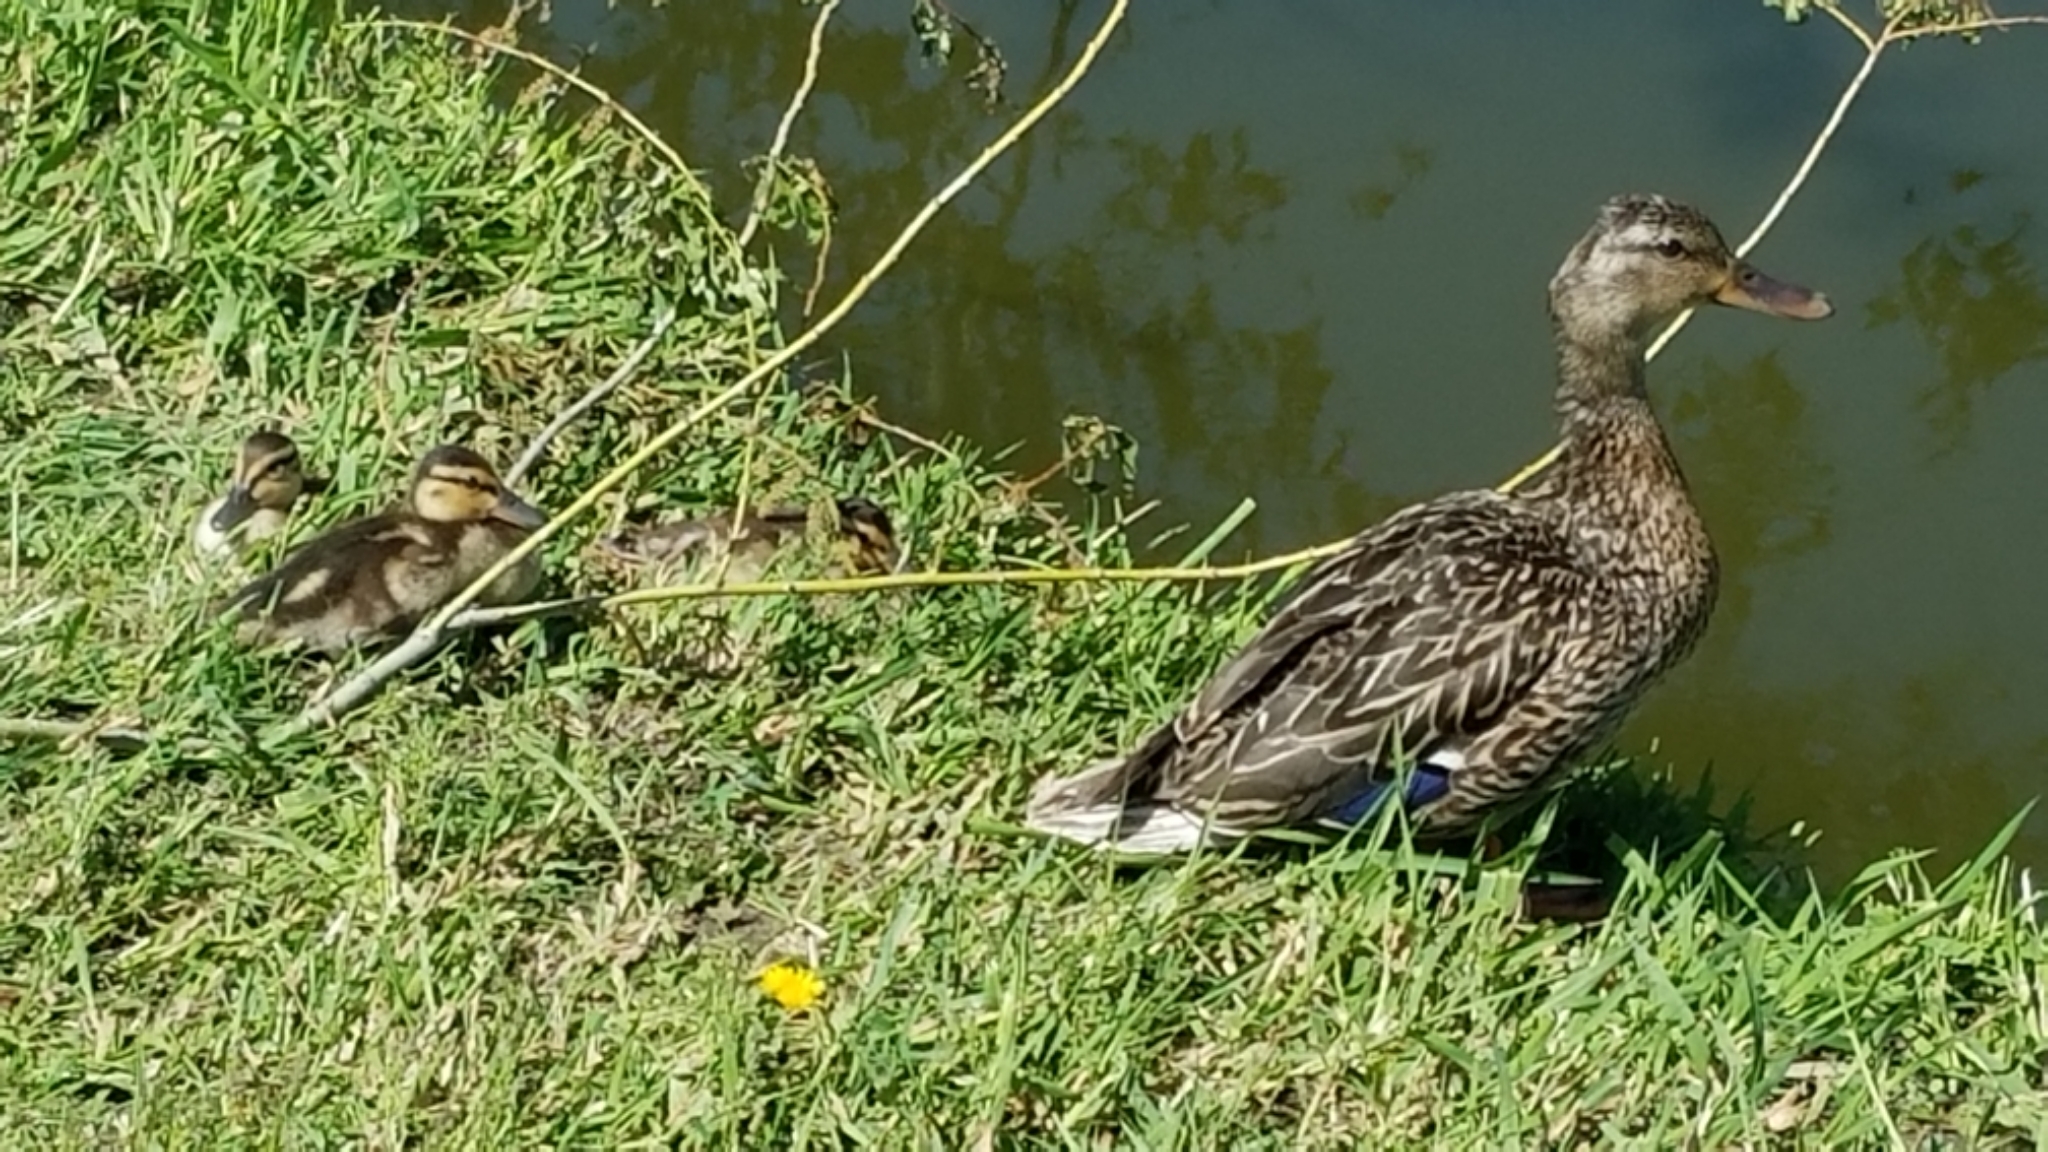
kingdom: Animalia
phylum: Chordata
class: Aves
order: Anseriformes
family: Anatidae
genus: Anas
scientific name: Anas platyrhynchos
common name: Mallard
